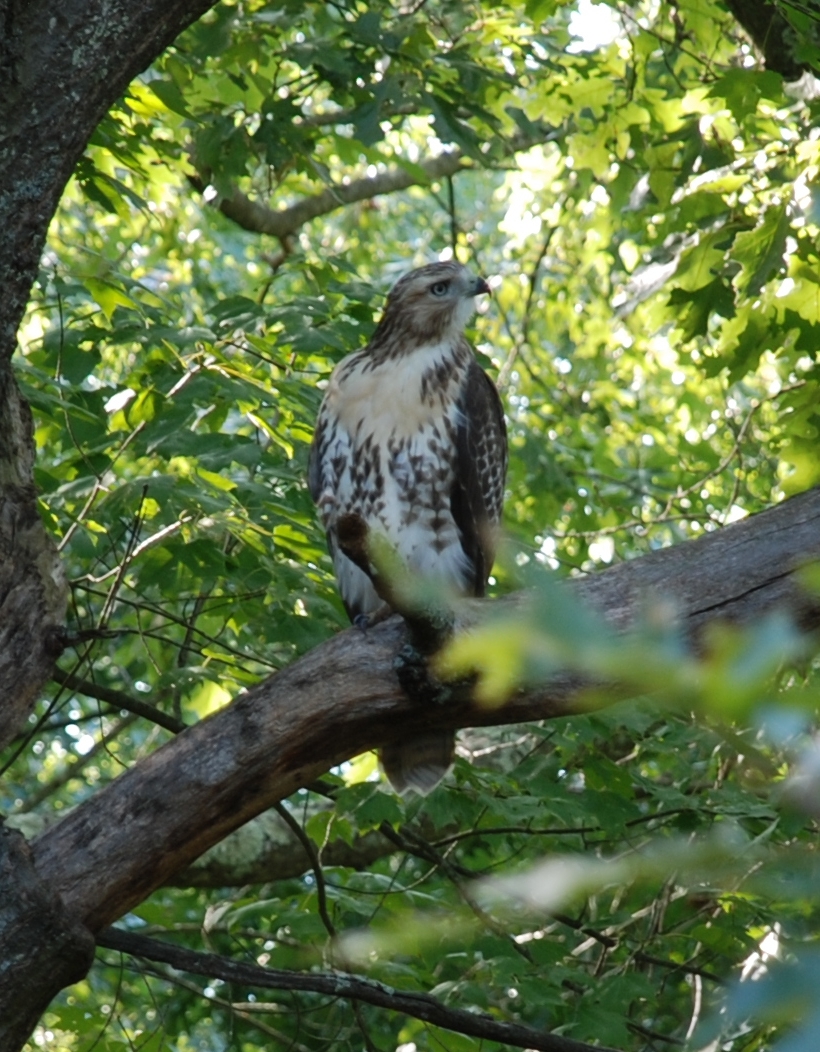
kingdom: Animalia
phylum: Chordata
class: Aves
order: Accipitriformes
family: Accipitridae
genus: Buteo
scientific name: Buteo jamaicensis
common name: Red-tailed hawk
